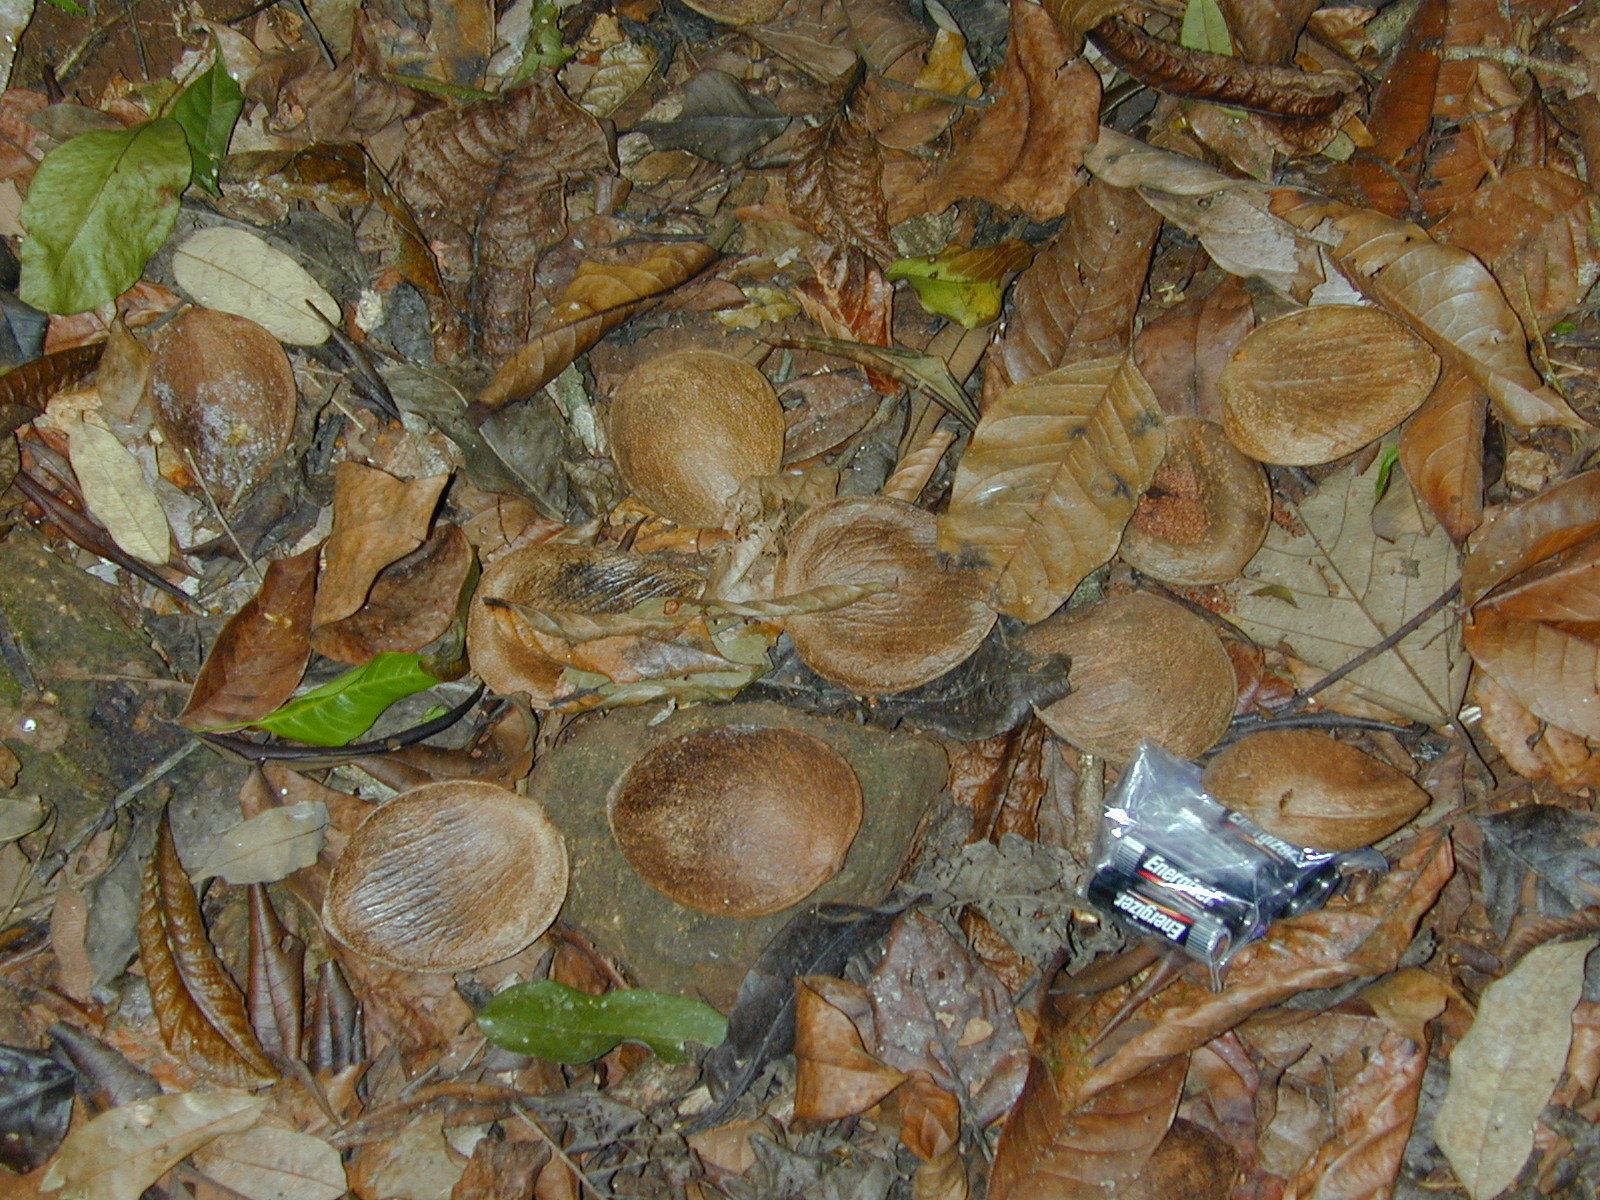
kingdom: Plantae
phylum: Tracheophyta
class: Magnoliopsida
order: Fabales
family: Fabaceae
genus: Prioria
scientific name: Prioria copaifera
